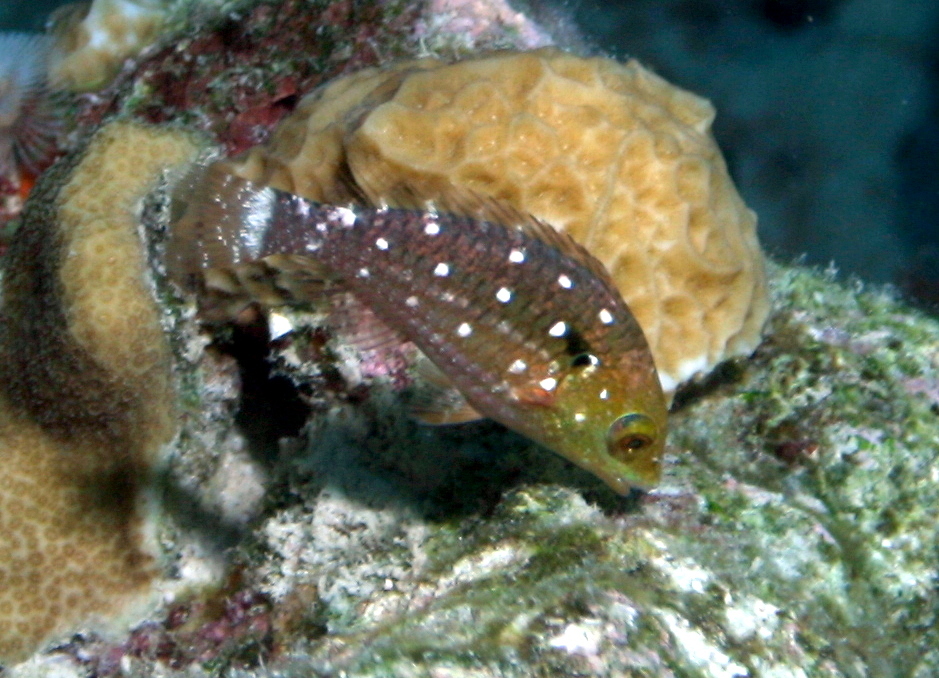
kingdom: Animalia
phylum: Chordata
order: Perciformes
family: Scaridae
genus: Sparisoma
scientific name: Sparisoma viride
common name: Stoplight parrotfish
